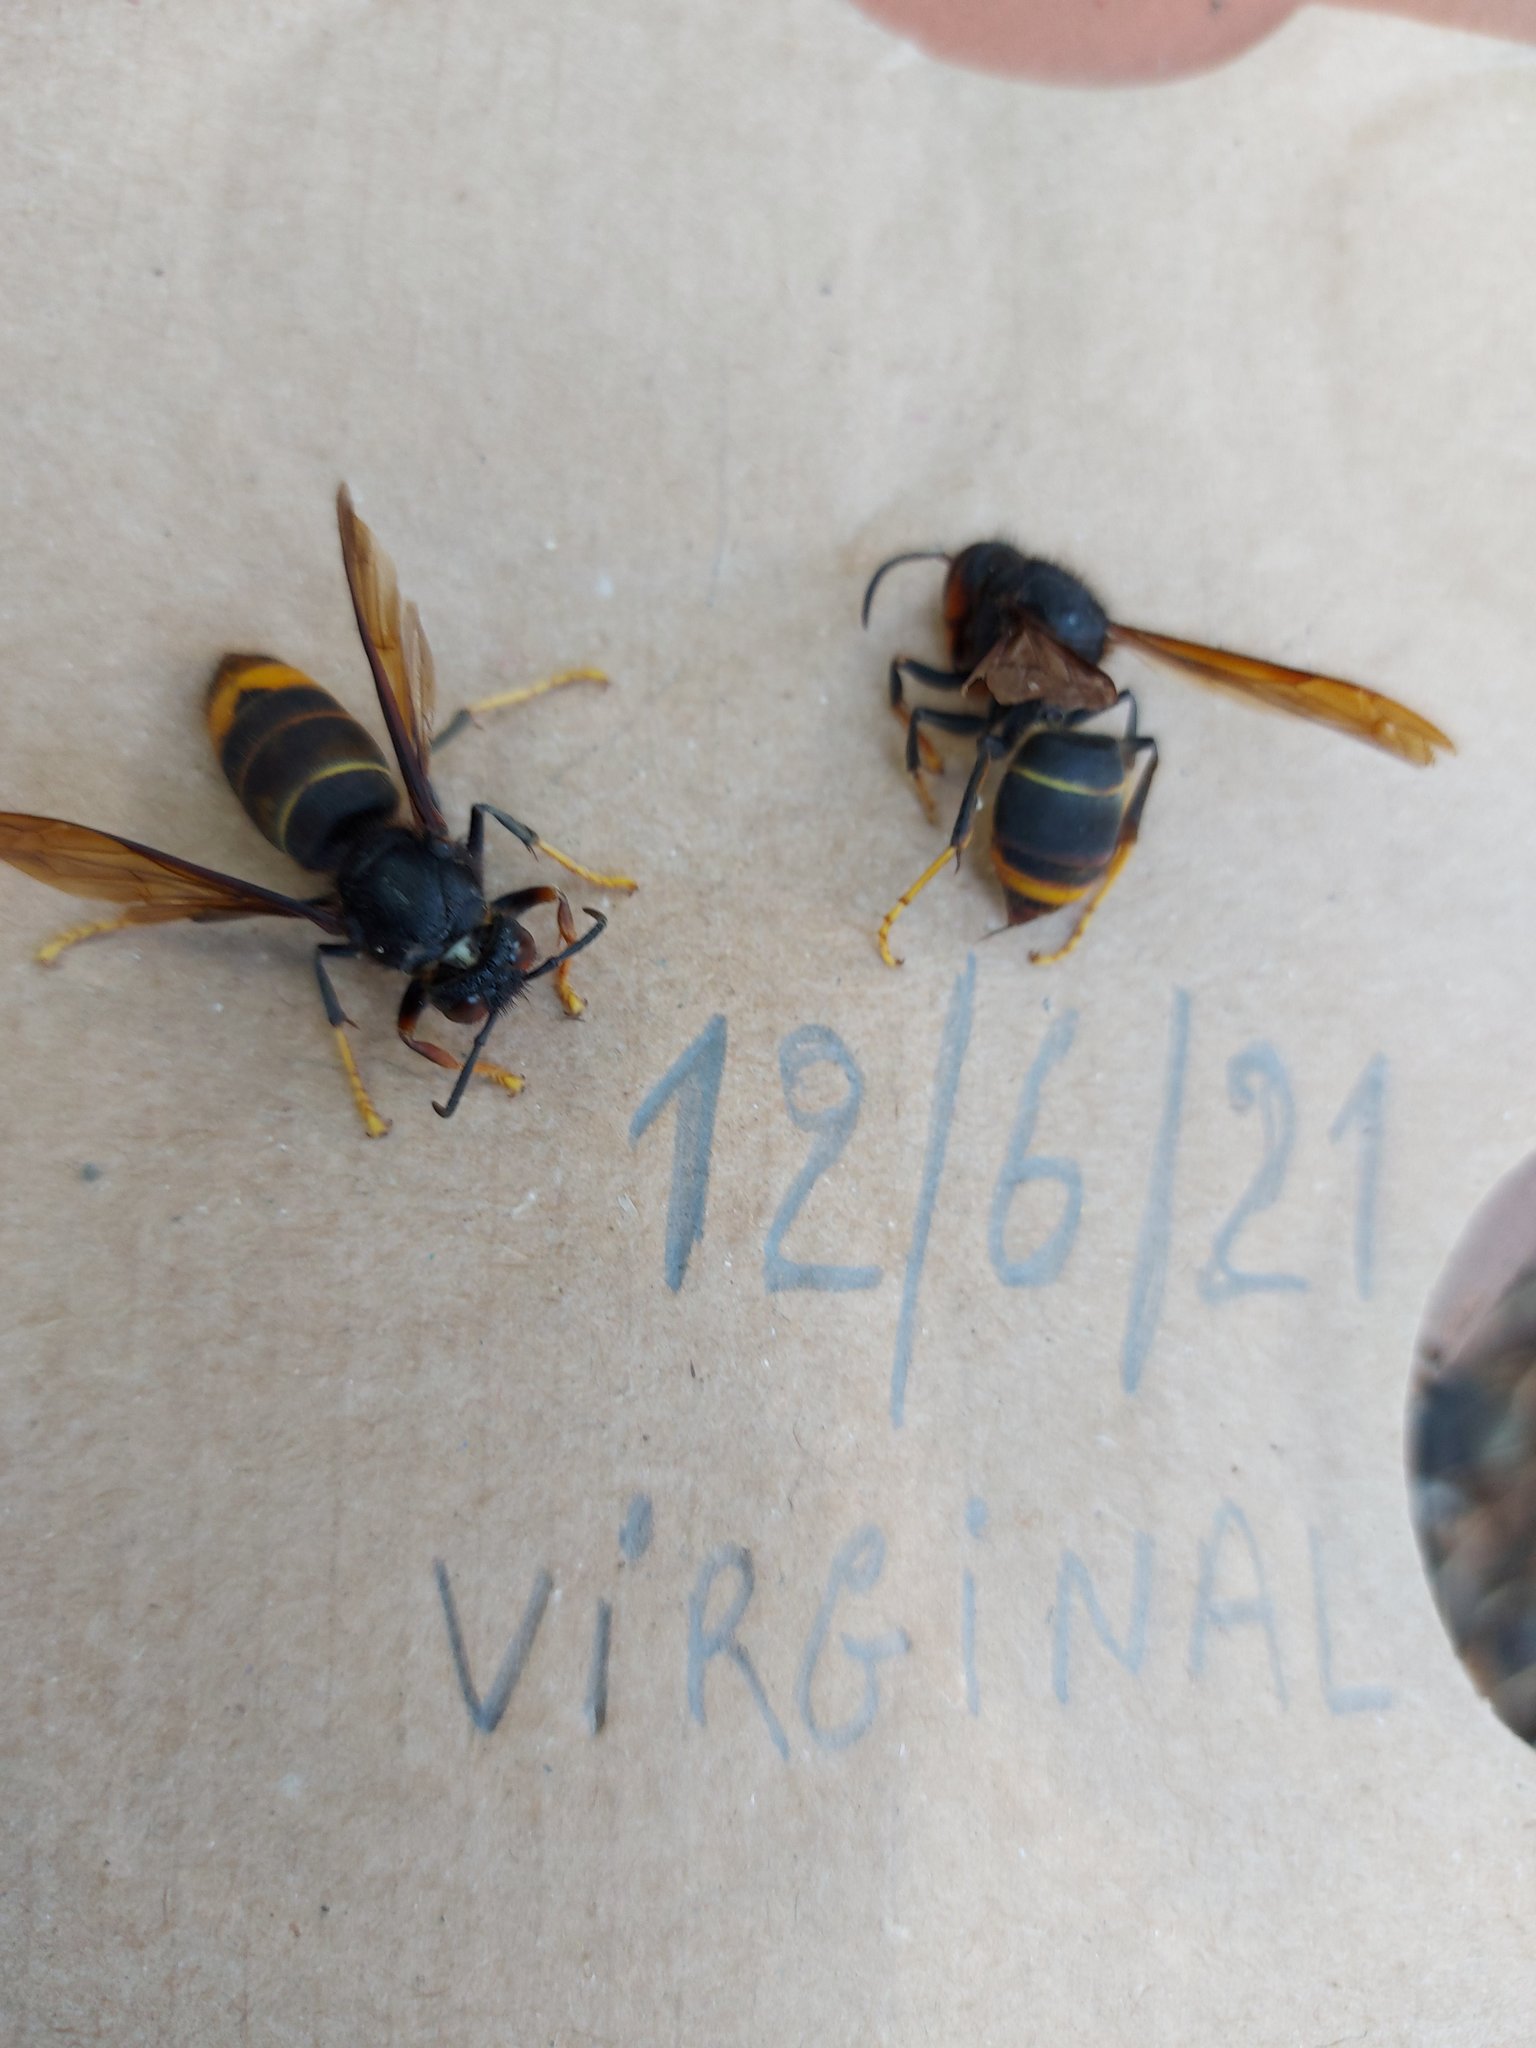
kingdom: Animalia
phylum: Arthropoda
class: Insecta
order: Hymenoptera
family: Vespidae
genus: Vespa
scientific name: Vespa velutina
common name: Asian hornet
